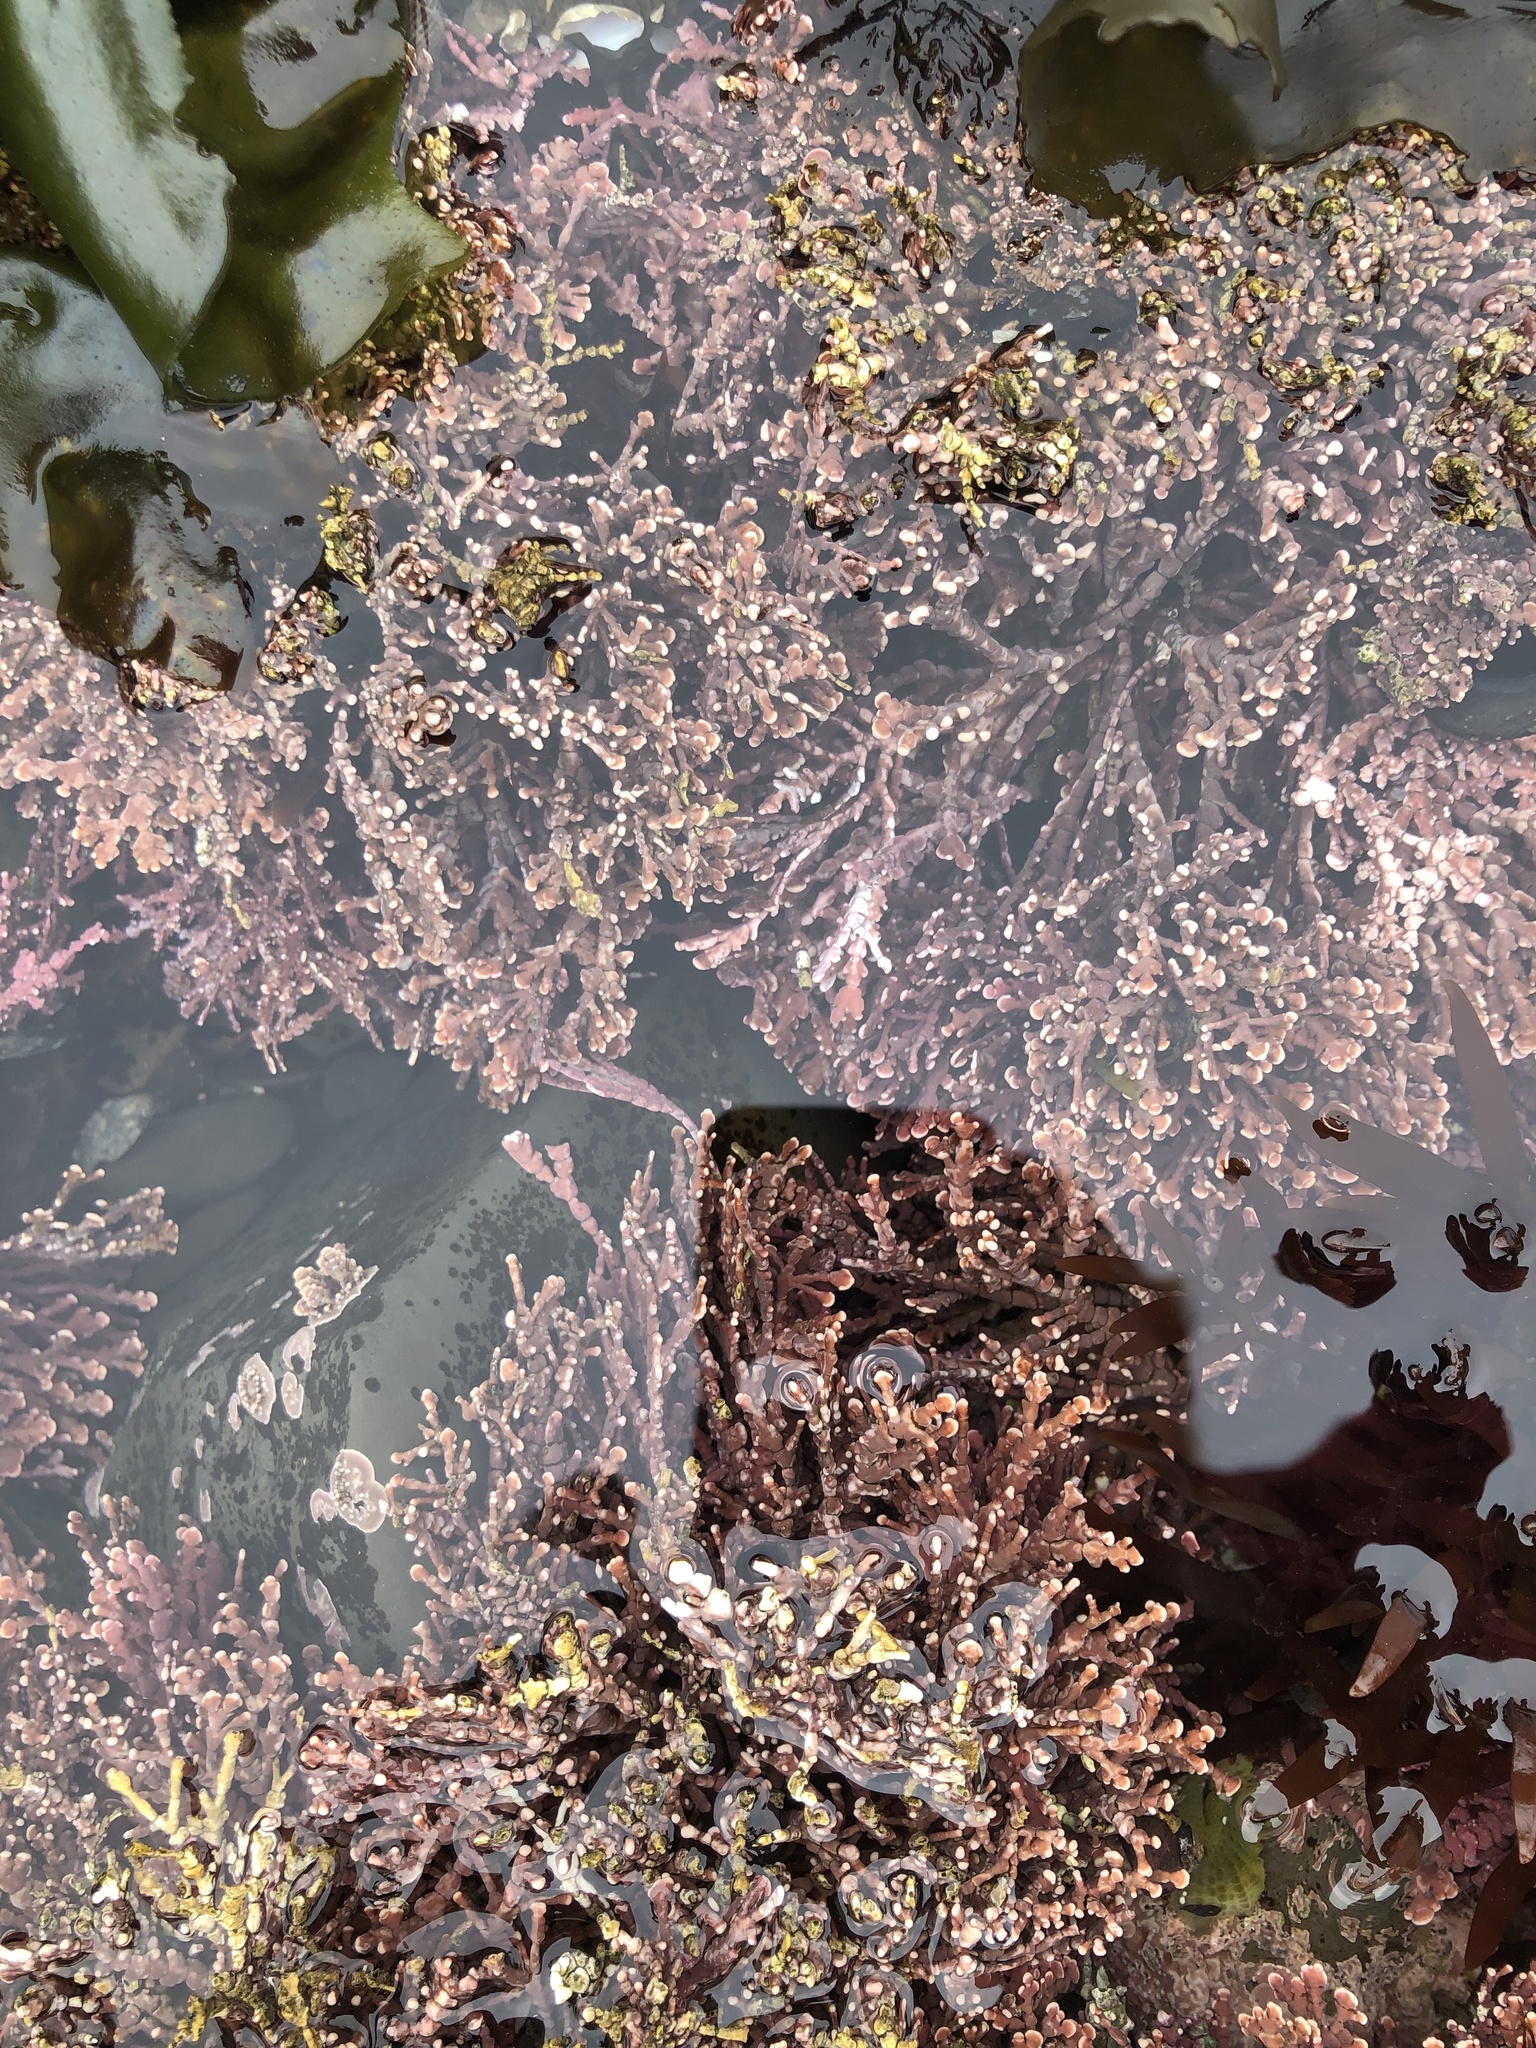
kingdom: Plantae
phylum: Rhodophyta
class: Florideophyceae
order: Corallinales
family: Corallinaceae
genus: Calliarthron
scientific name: Calliarthron tuberculosum
